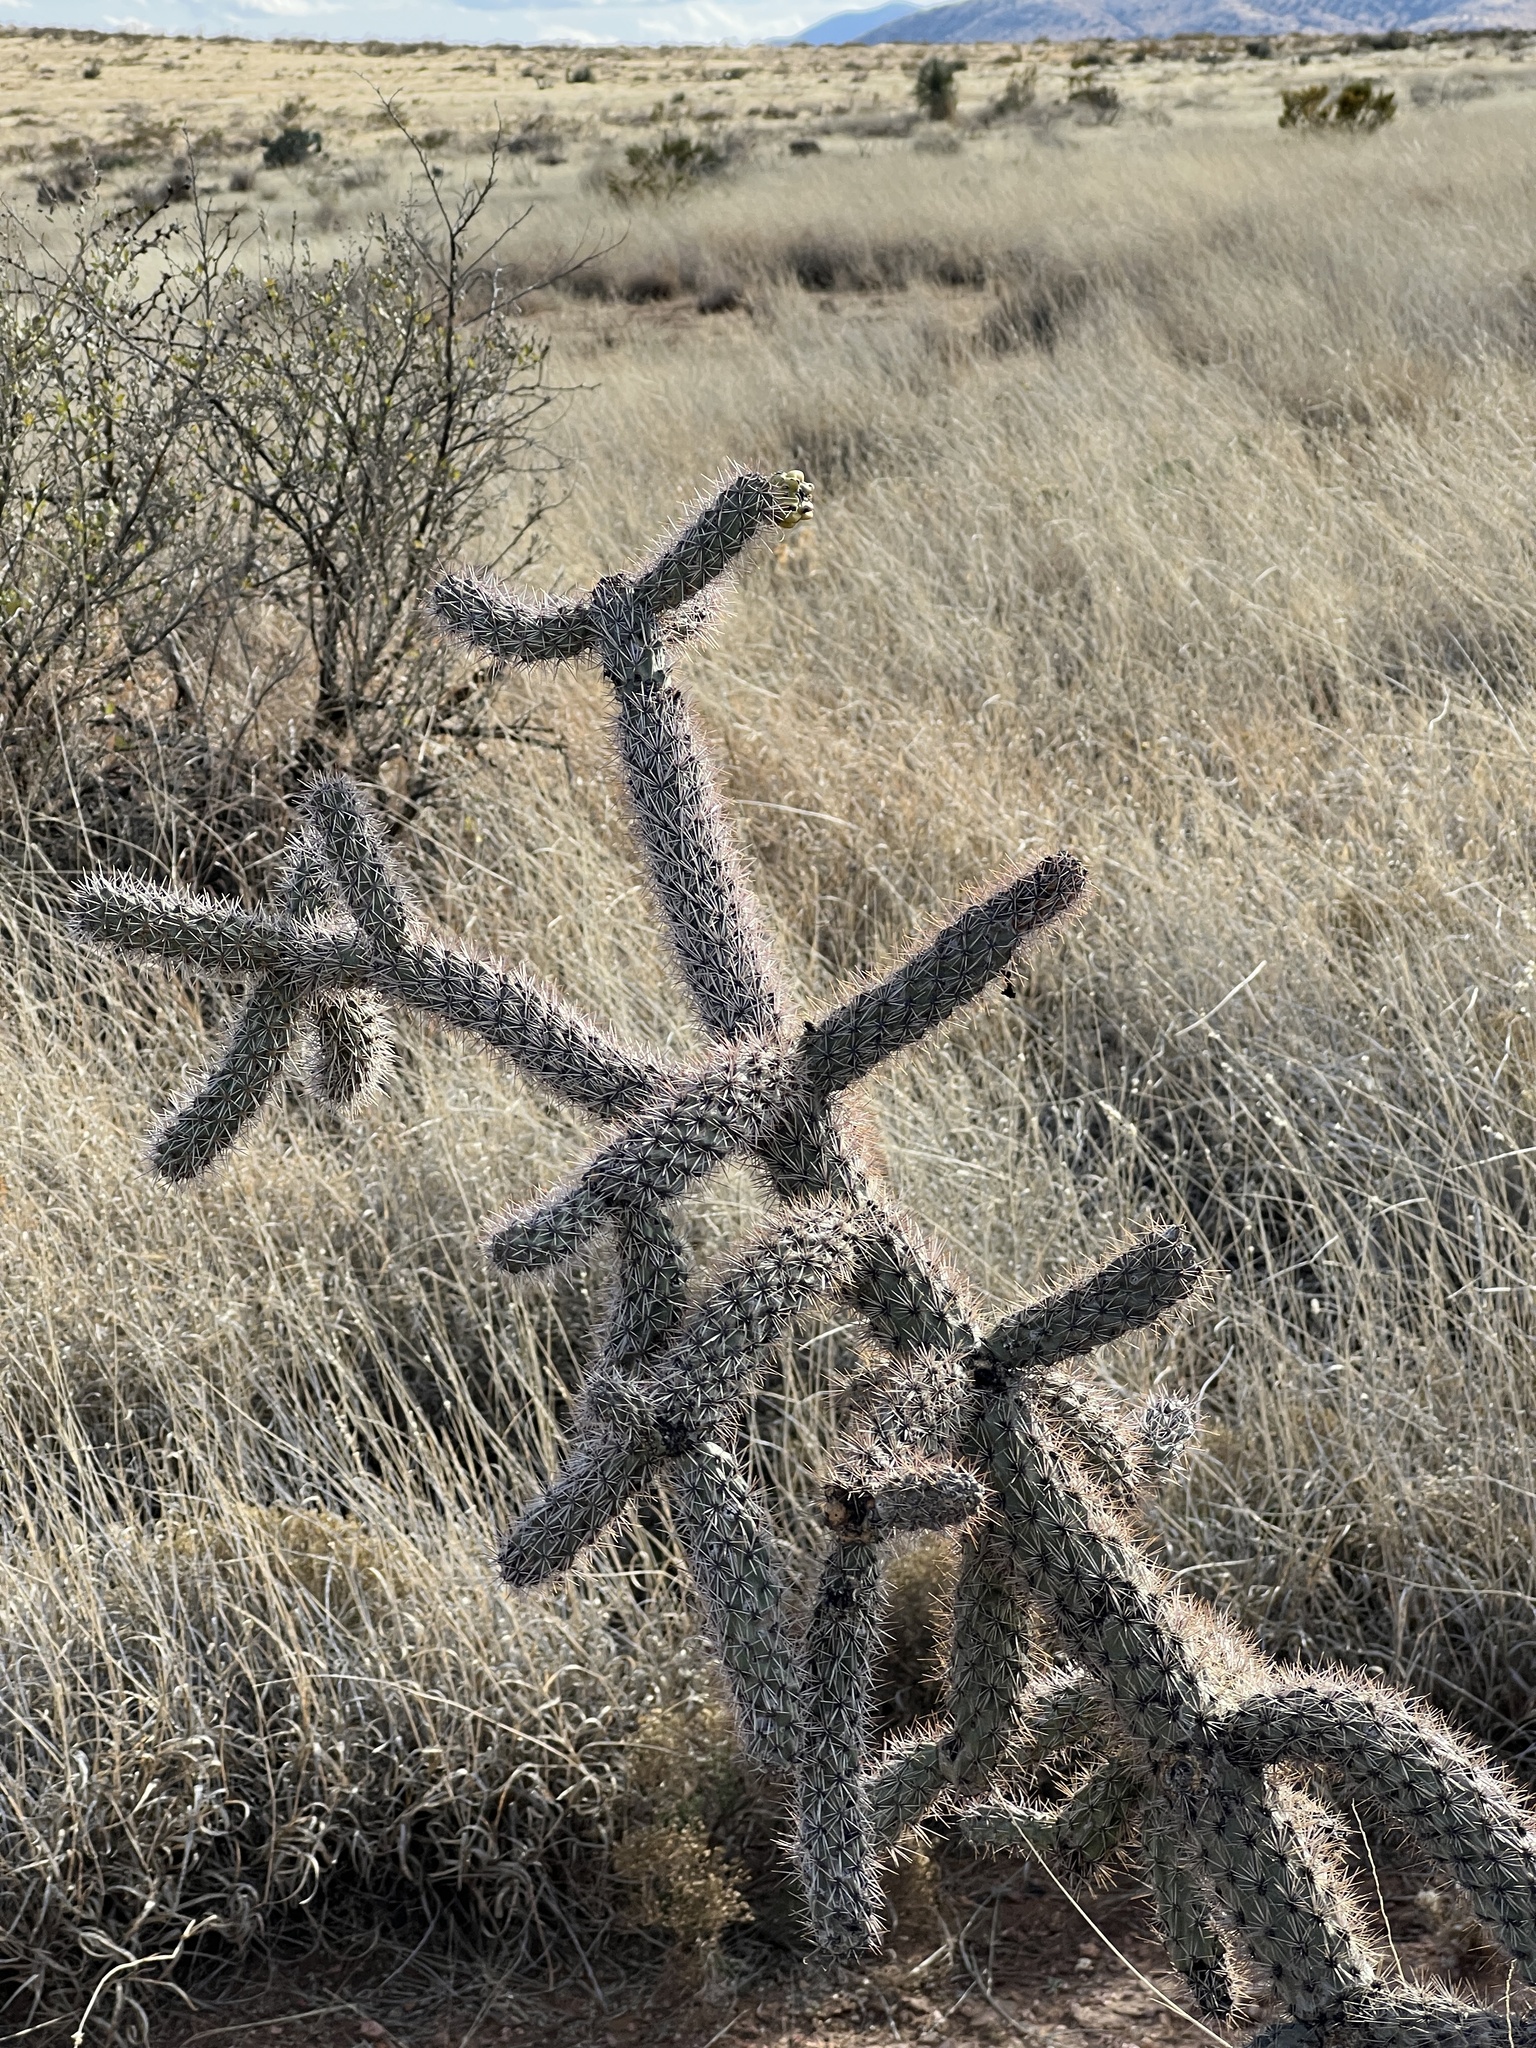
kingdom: Plantae
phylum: Tracheophyta
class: Magnoliopsida
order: Caryophyllales
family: Cactaceae
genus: Cylindropuntia
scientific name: Cylindropuntia imbricata
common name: Candelabrum cactus
